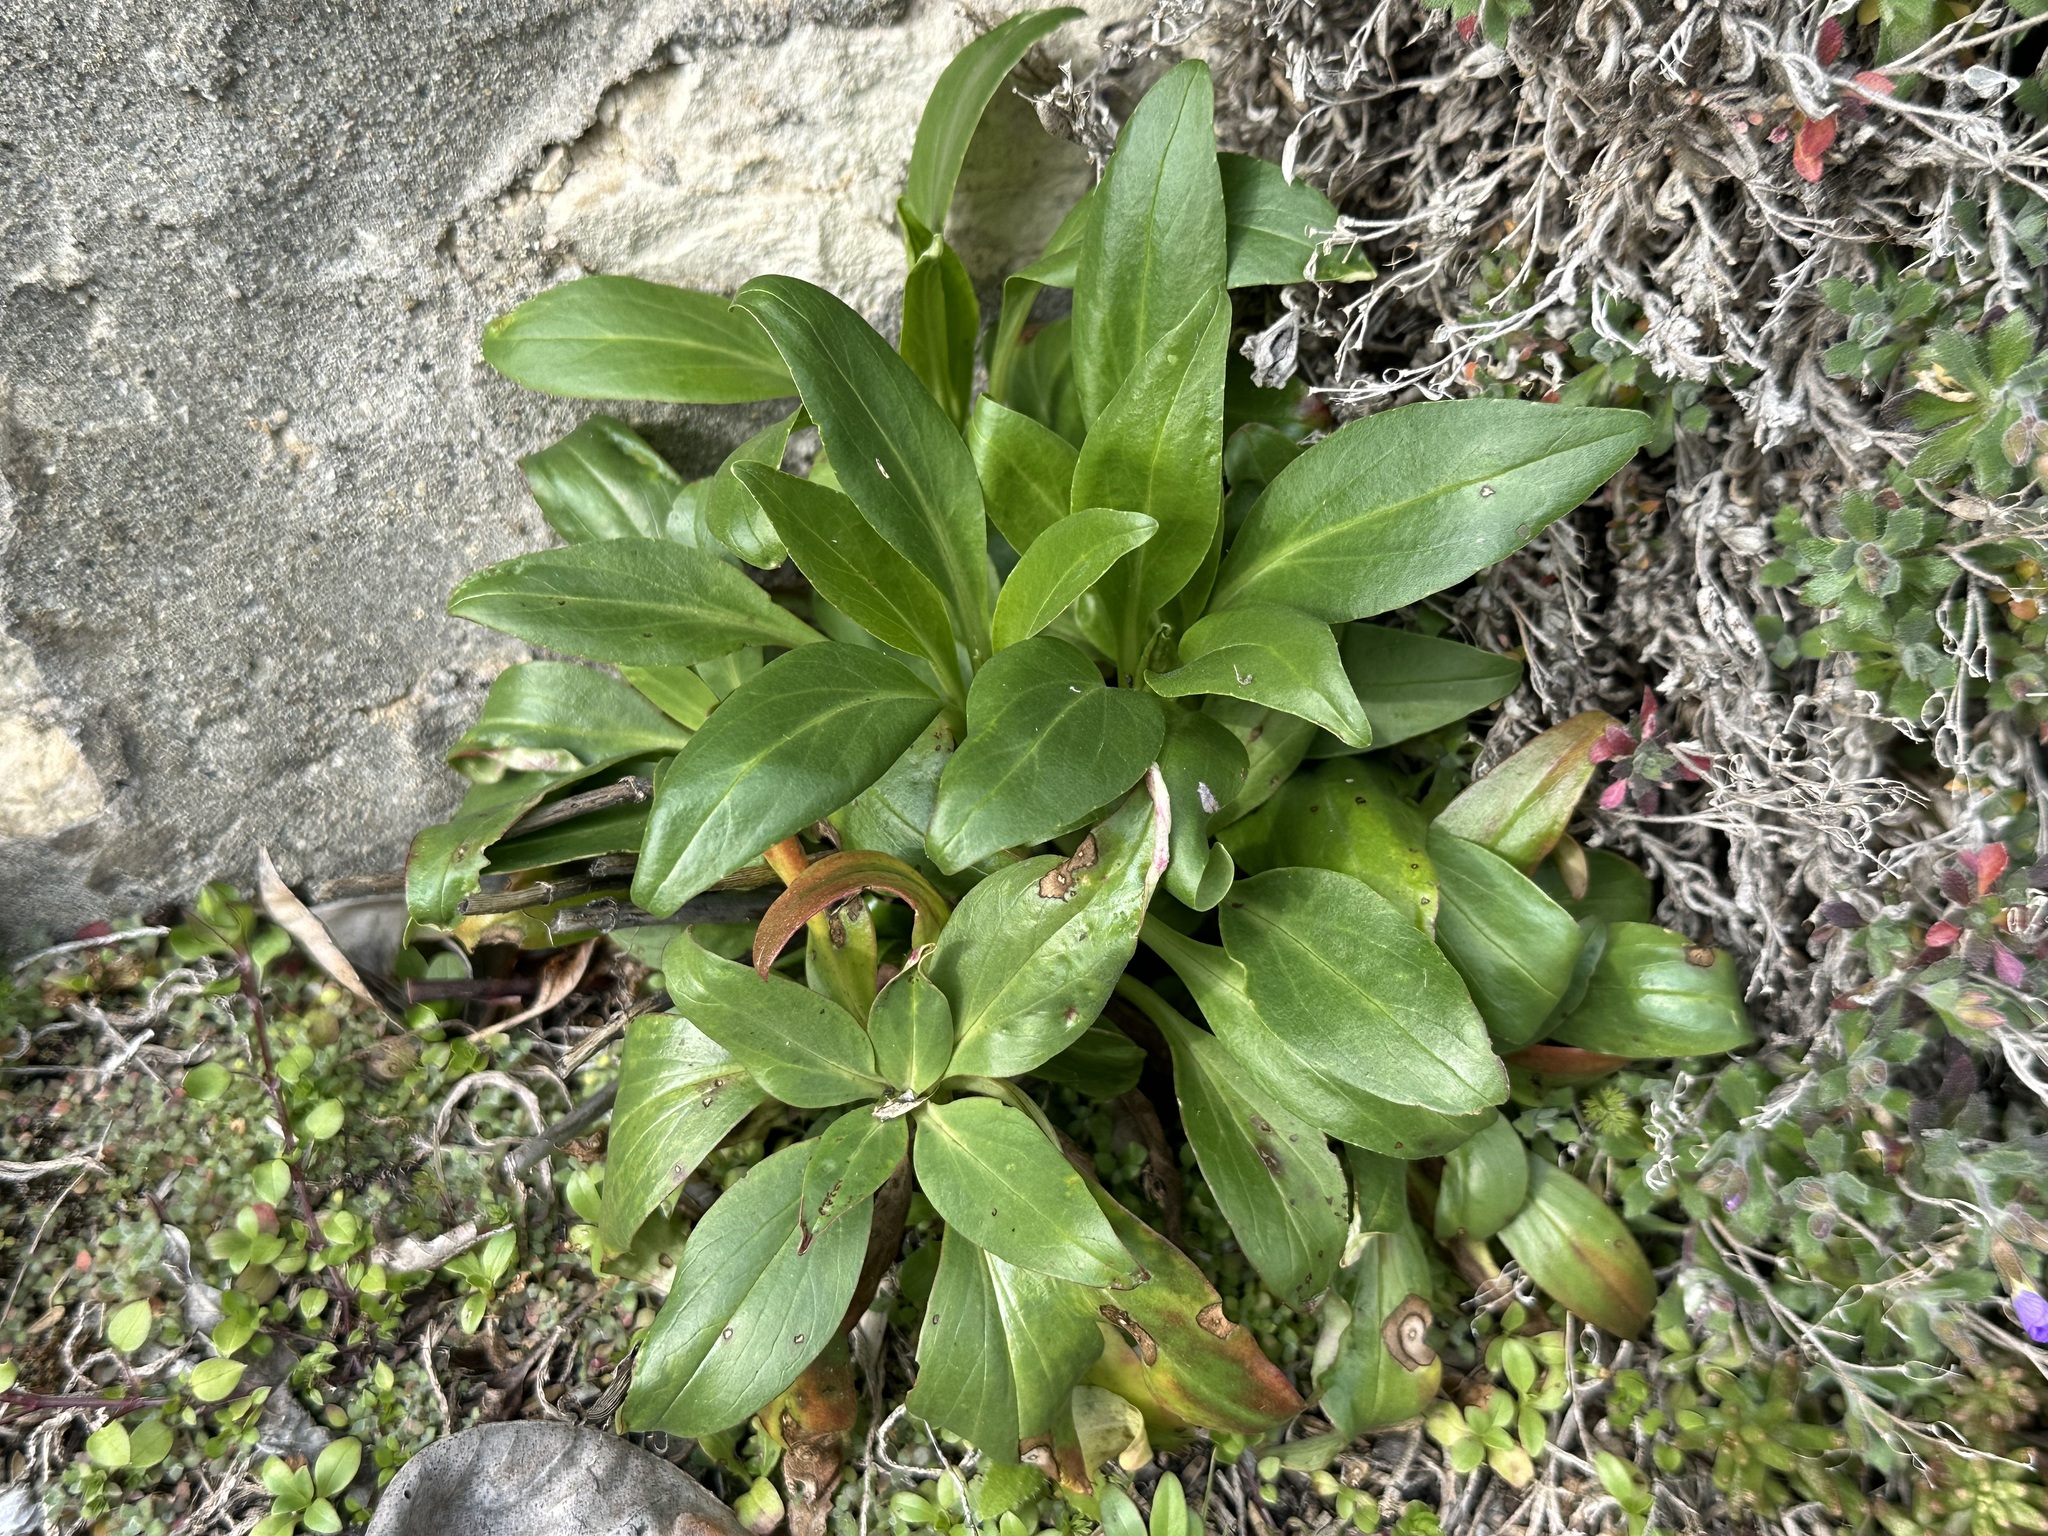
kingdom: Plantae
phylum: Tracheophyta
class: Magnoliopsida
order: Dipsacales
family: Caprifoliaceae
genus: Centranthus
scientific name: Centranthus ruber
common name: Red valerian
